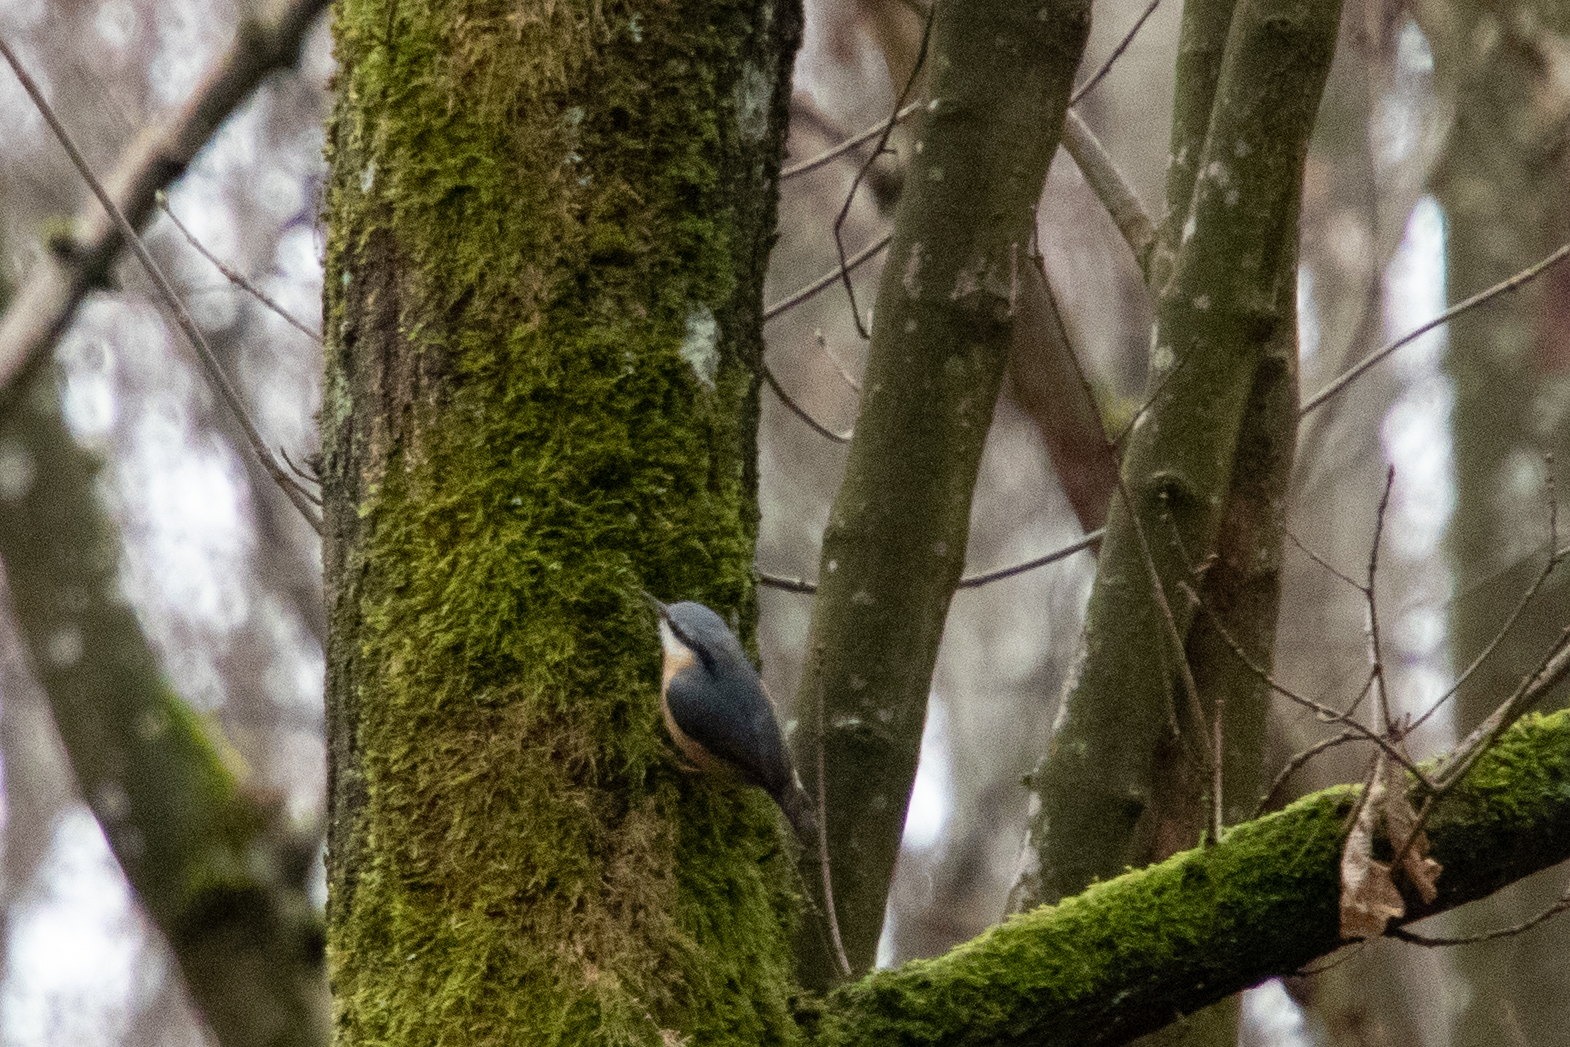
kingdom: Animalia
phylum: Chordata
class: Aves
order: Passeriformes
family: Sittidae
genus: Sitta
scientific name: Sitta europaea
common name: Eurasian nuthatch
